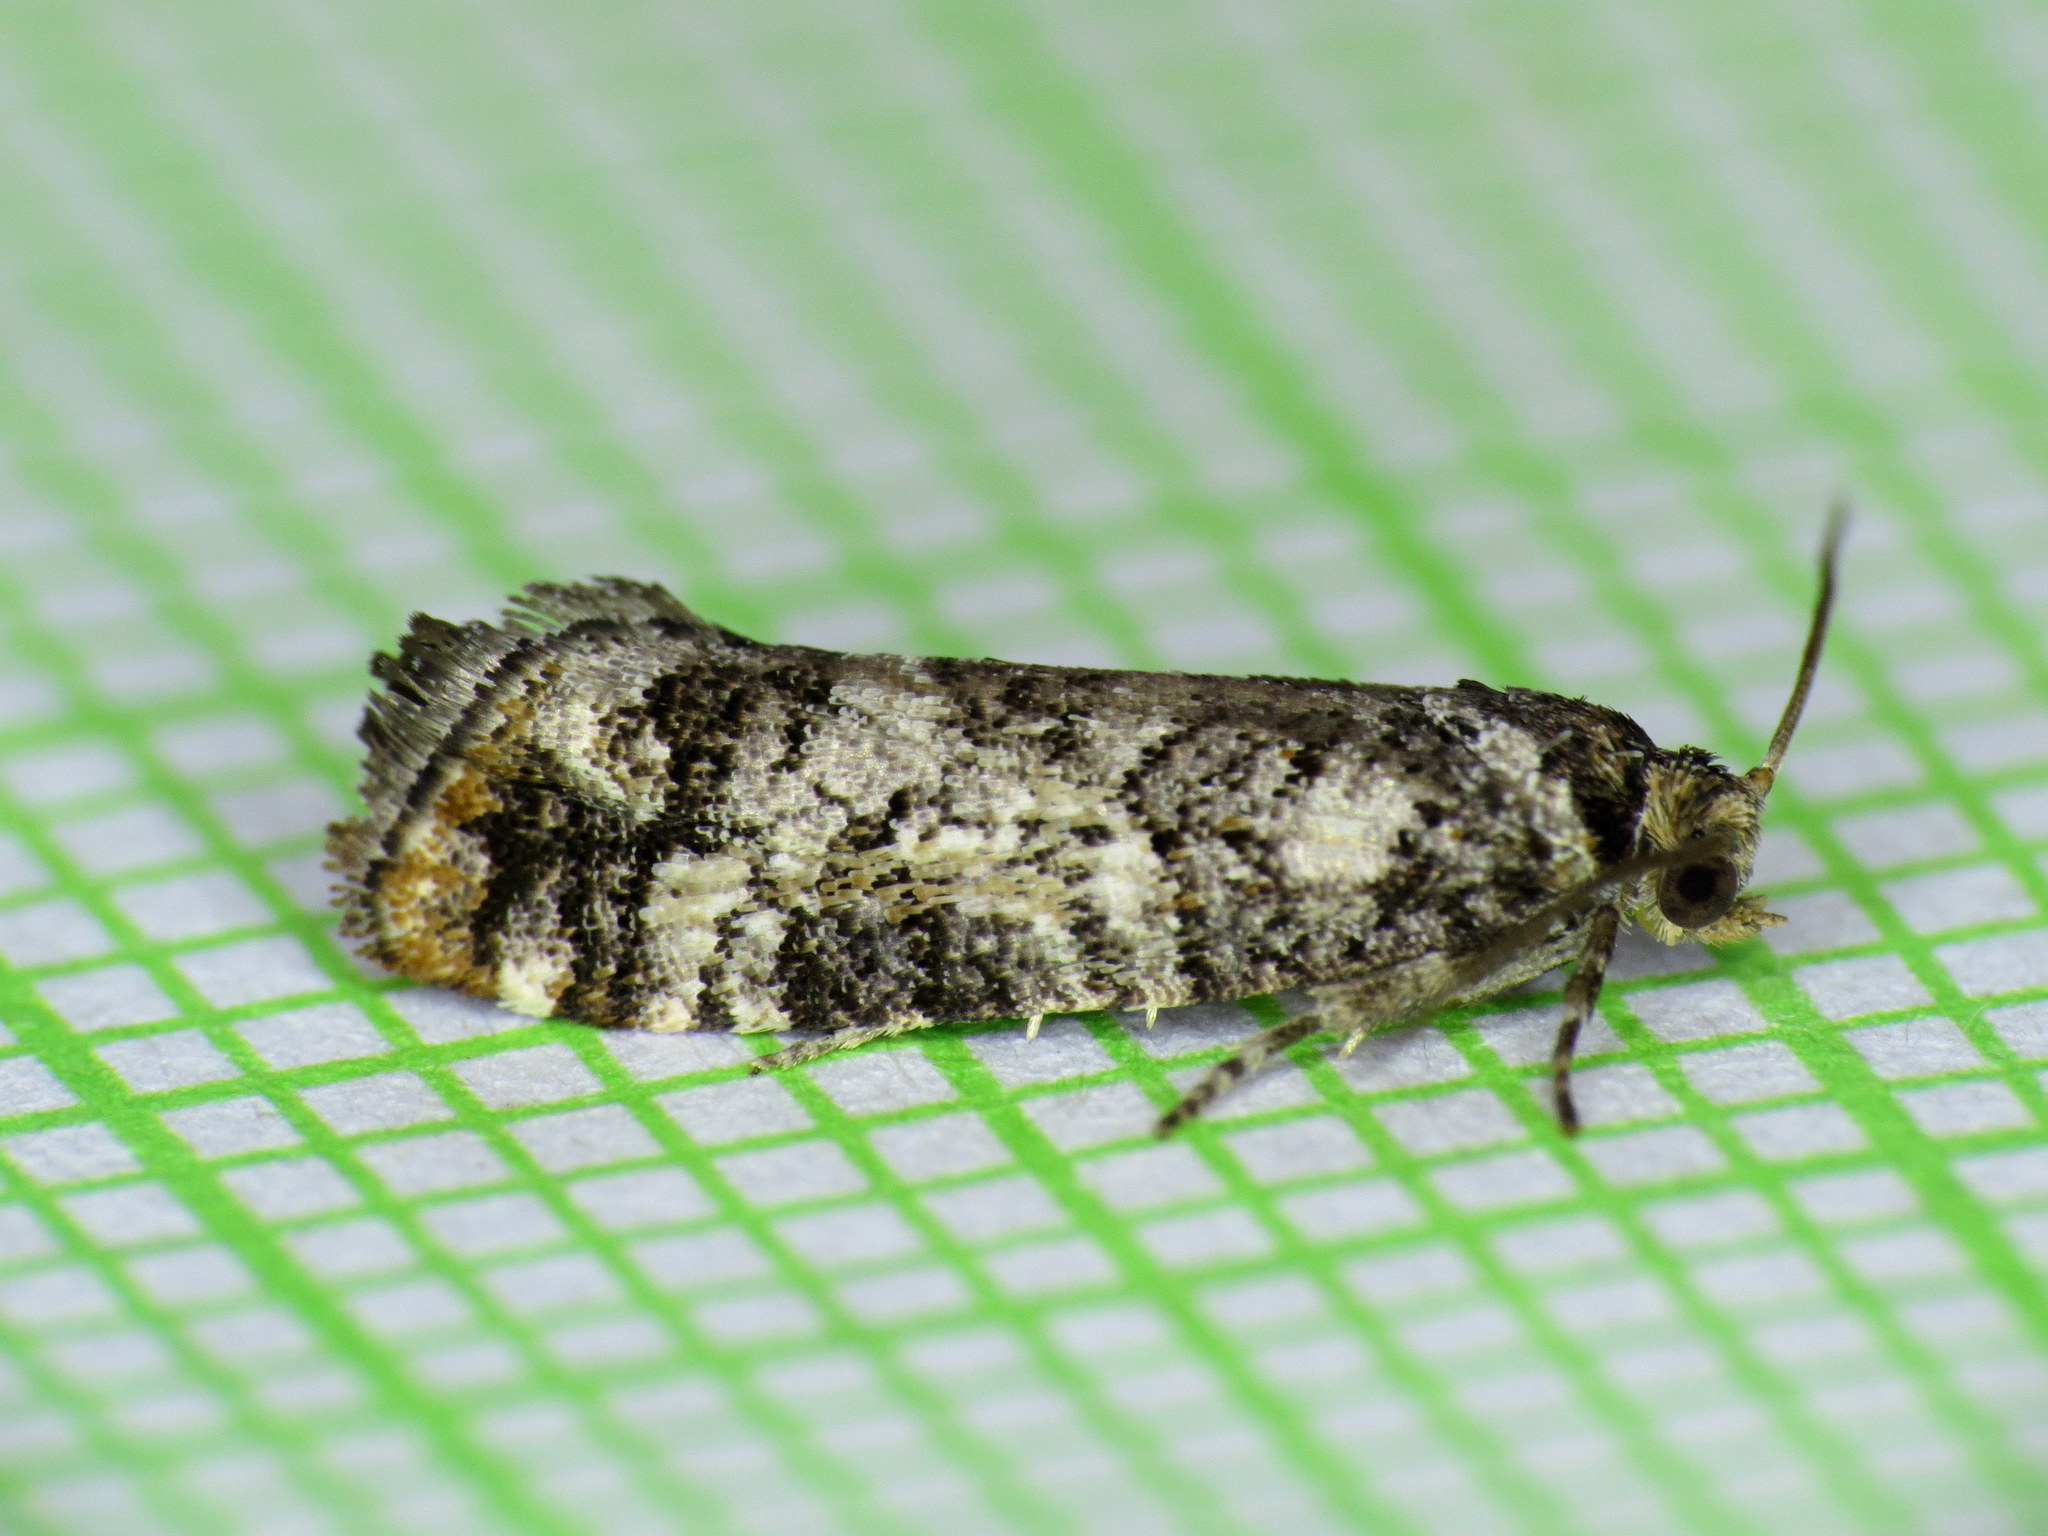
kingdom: Animalia
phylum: Arthropoda
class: Insecta
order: Lepidoptera
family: Tortricidae
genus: Barbara
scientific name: Barbara colfaxiana
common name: Douglas-fir cone moth
